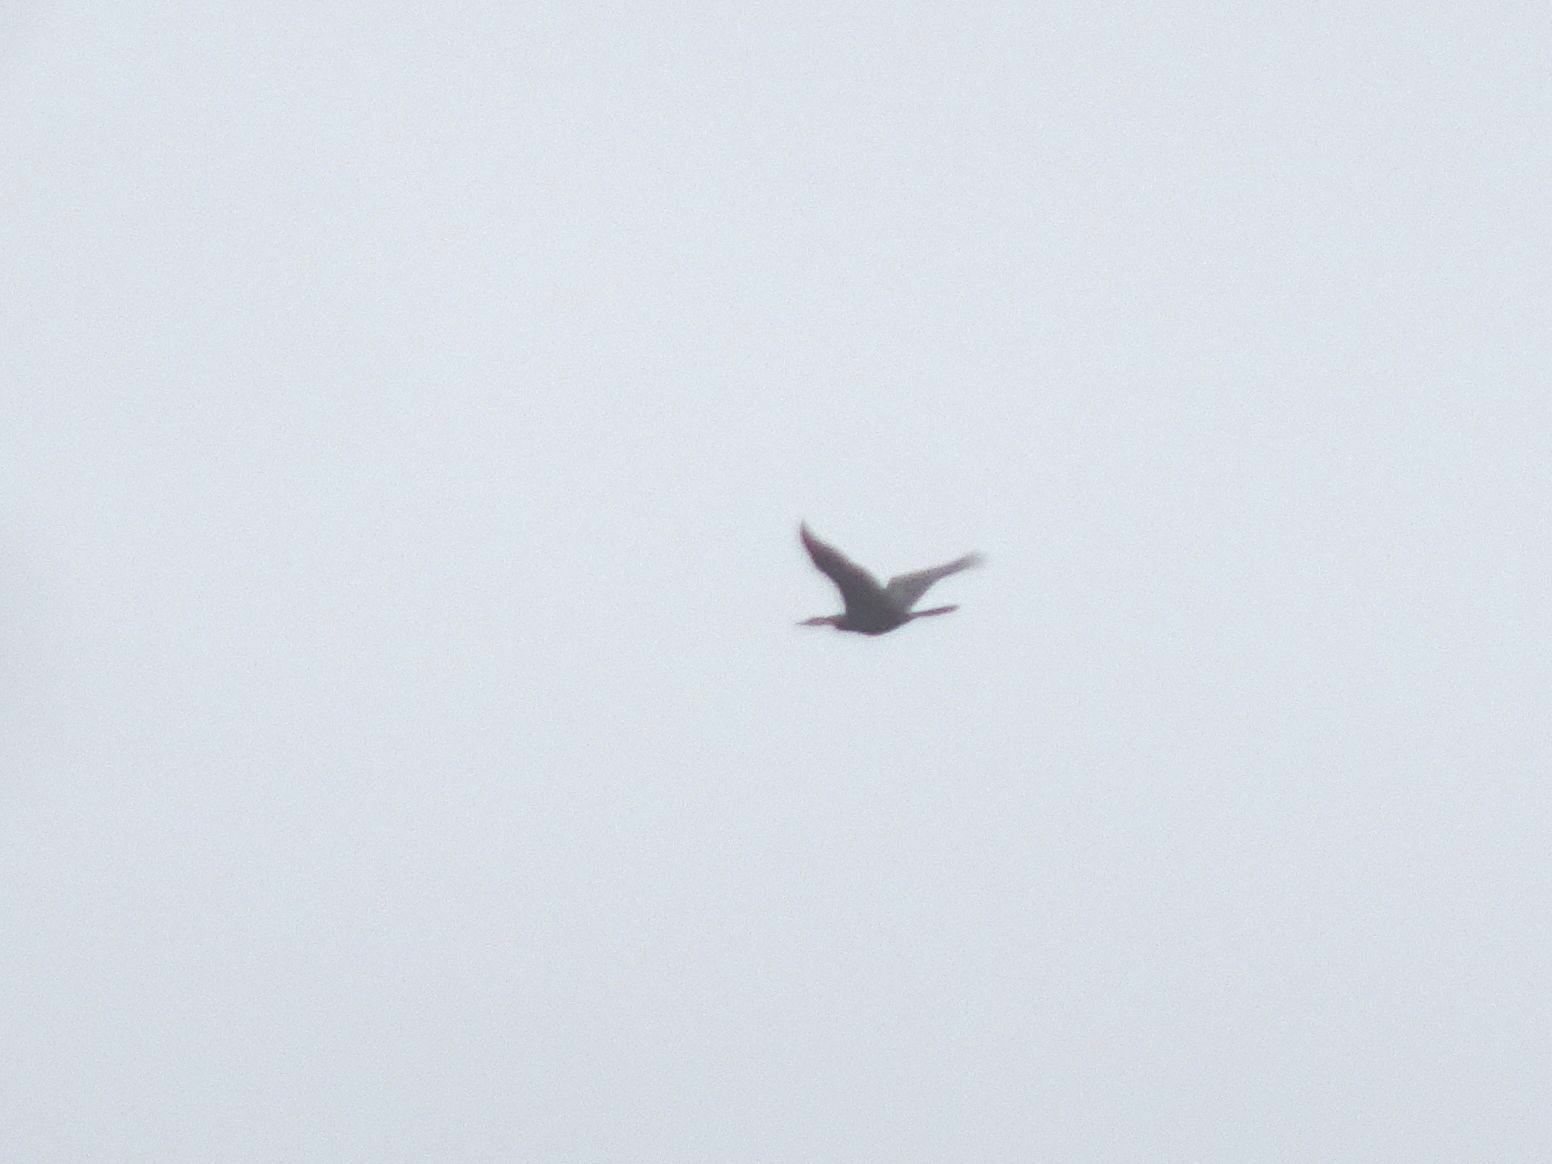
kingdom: Animalia
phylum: Chordata
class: Aves
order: Suliformes
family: Anhingidae
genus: Anhinga
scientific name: Anhinga rufa
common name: African darter
